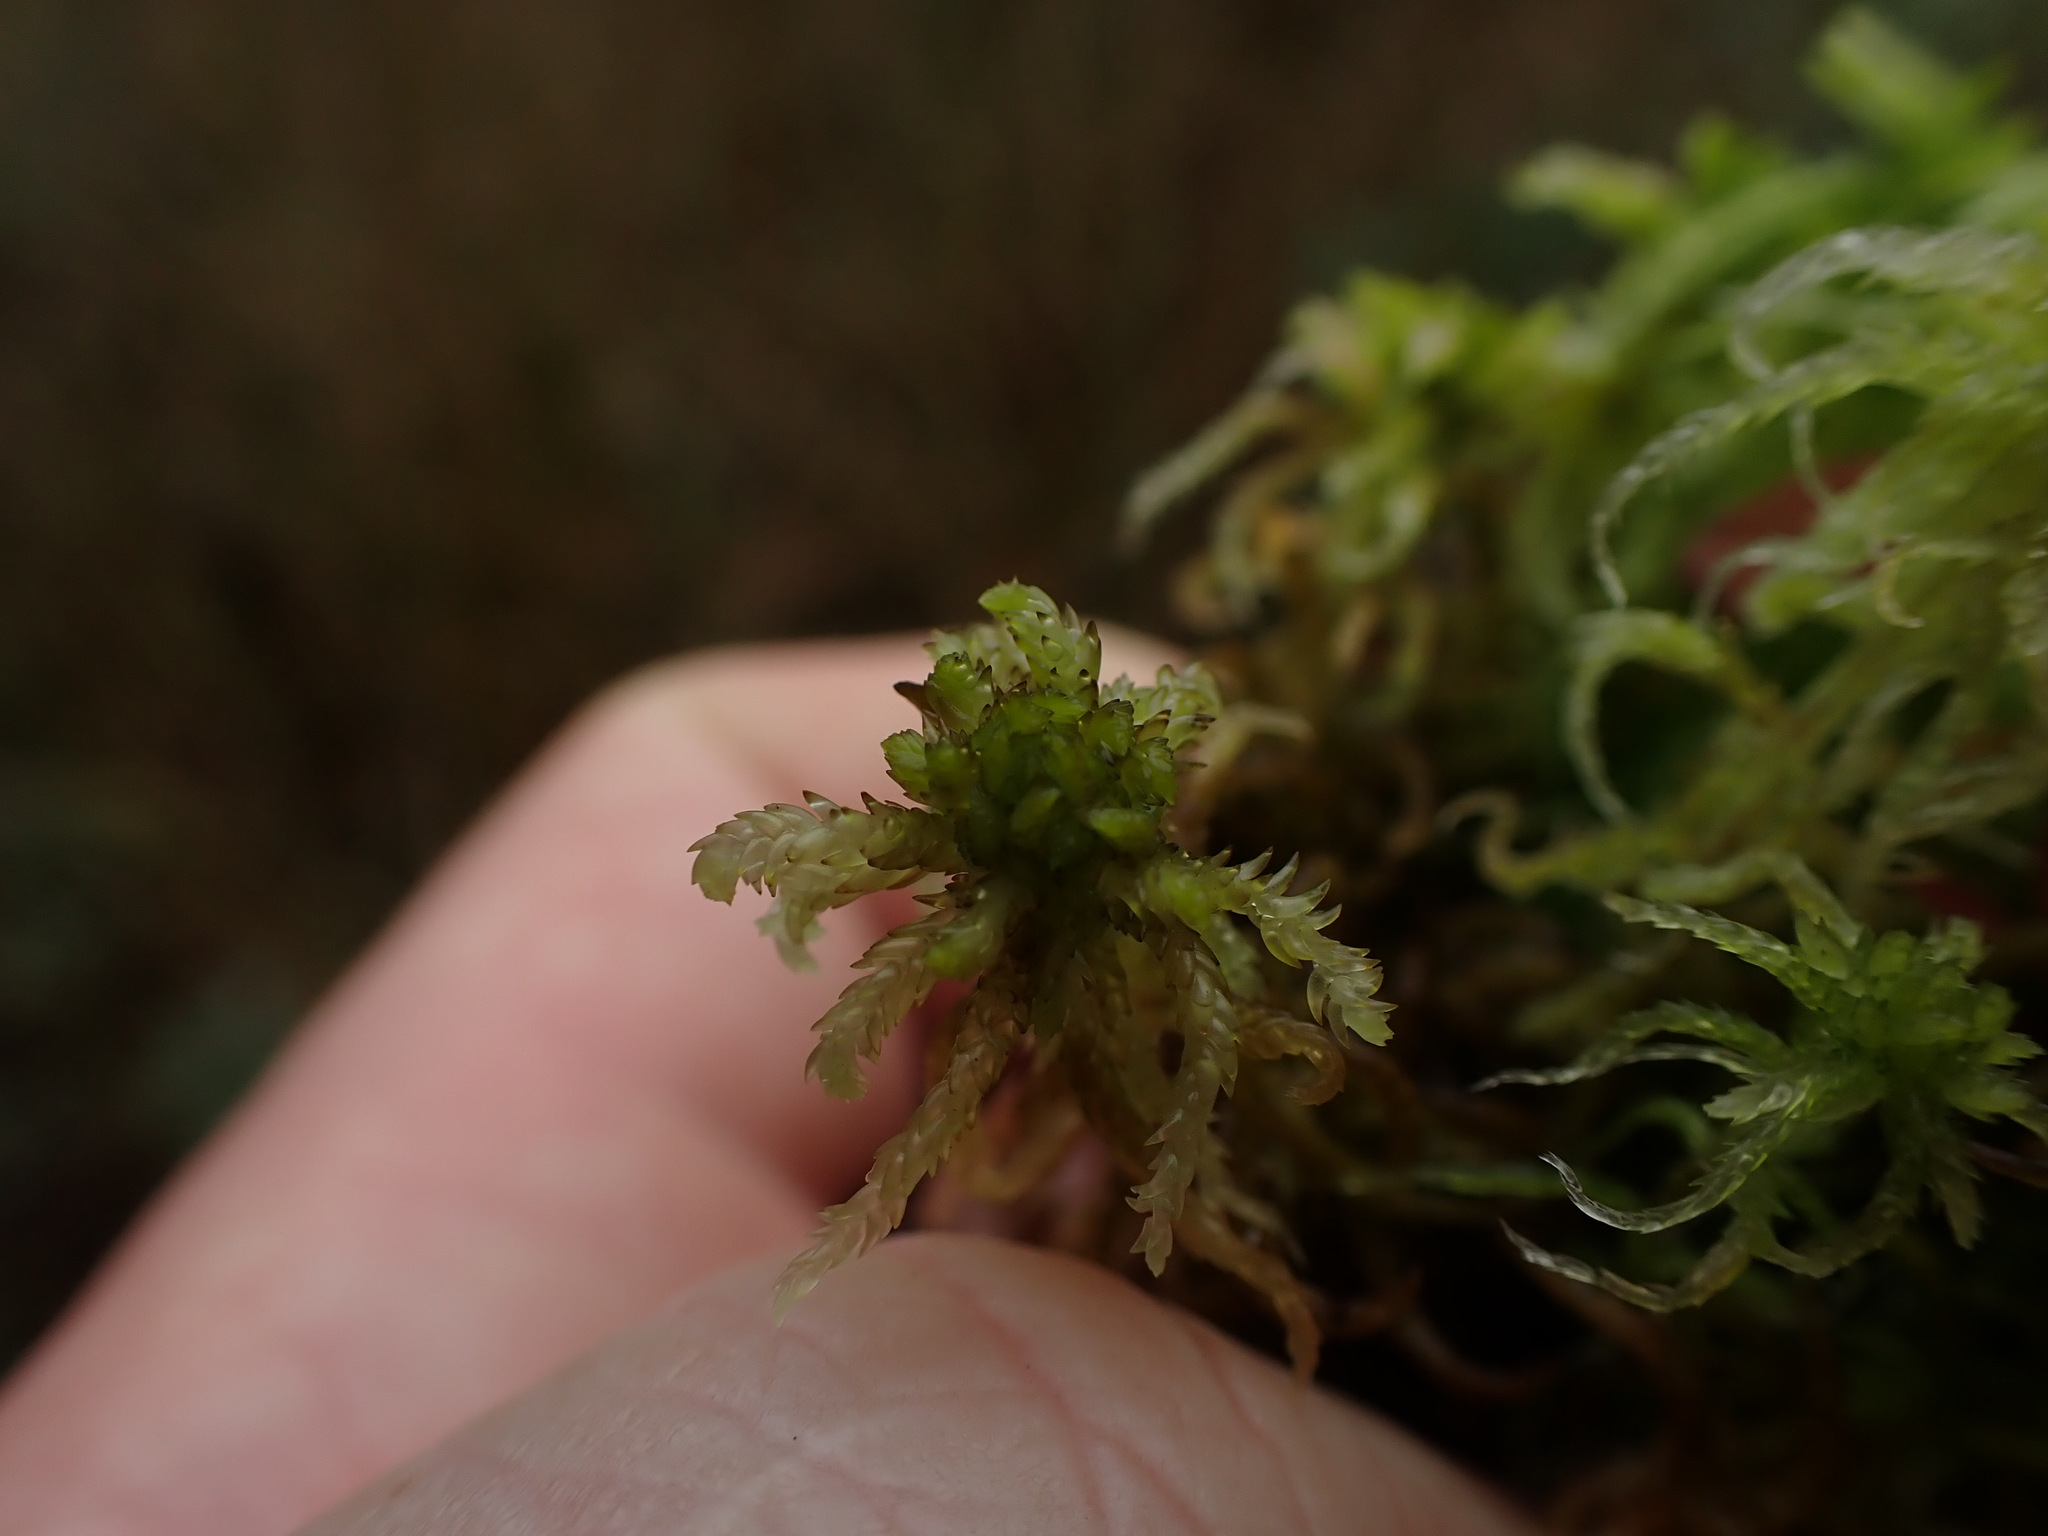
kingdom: Plantae
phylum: Bryophyta
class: Sphagnopsida
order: Sphagnales
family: Sphagnaceae
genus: Sphagnum
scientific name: Sphagnum subsecundum
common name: Orange peat moss
